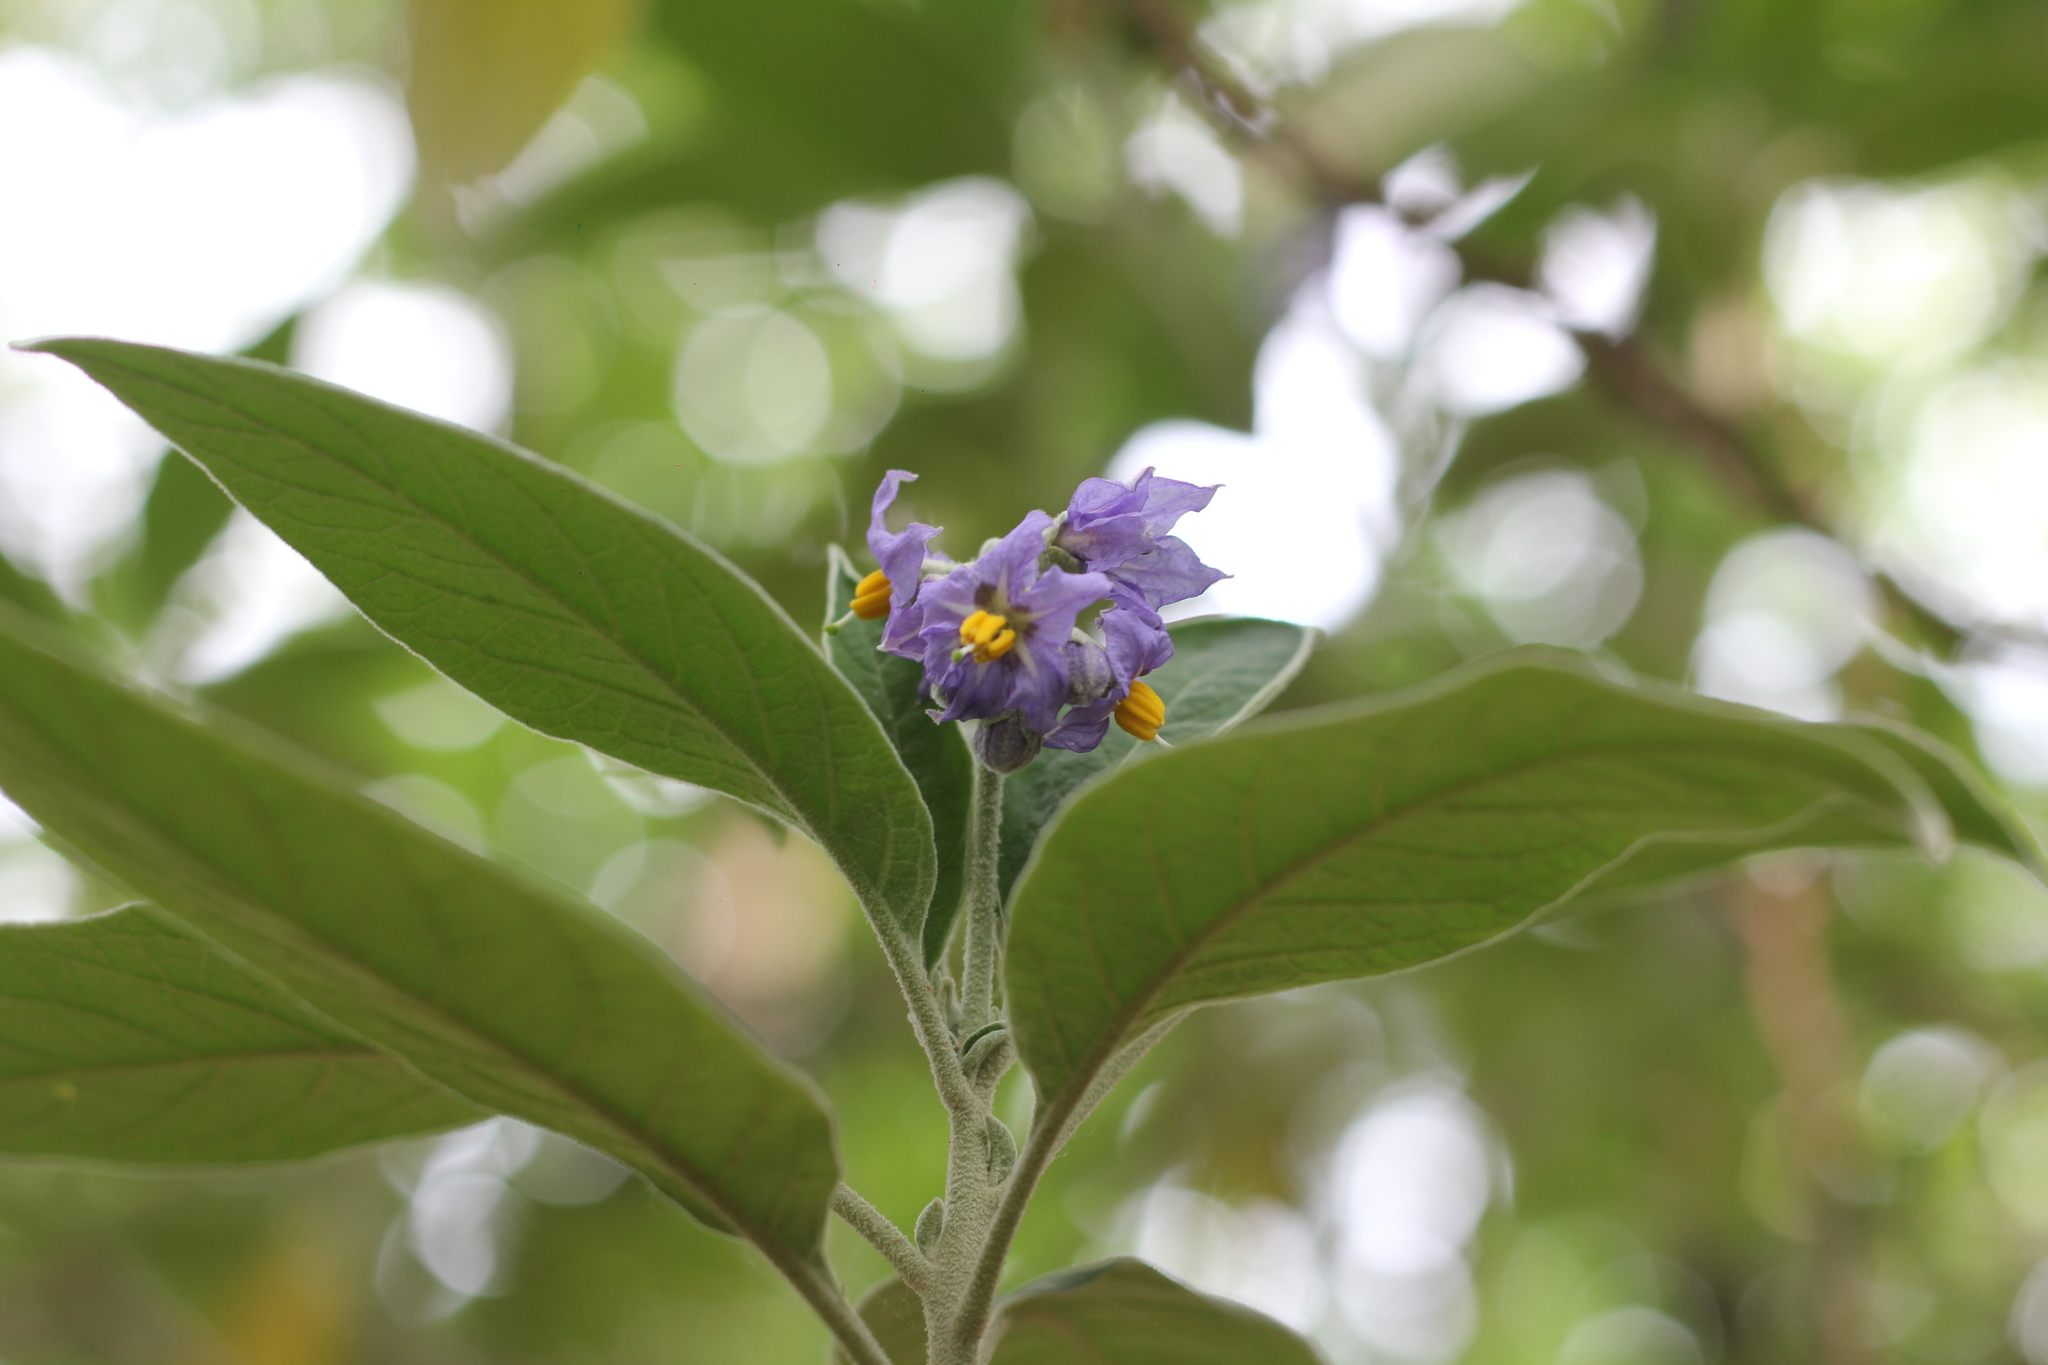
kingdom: Plantae
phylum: Tracheophyta
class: Magnoliopsida
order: Solanales
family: Solanaceae
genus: Solanum
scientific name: Solanum granulosoleprosum
